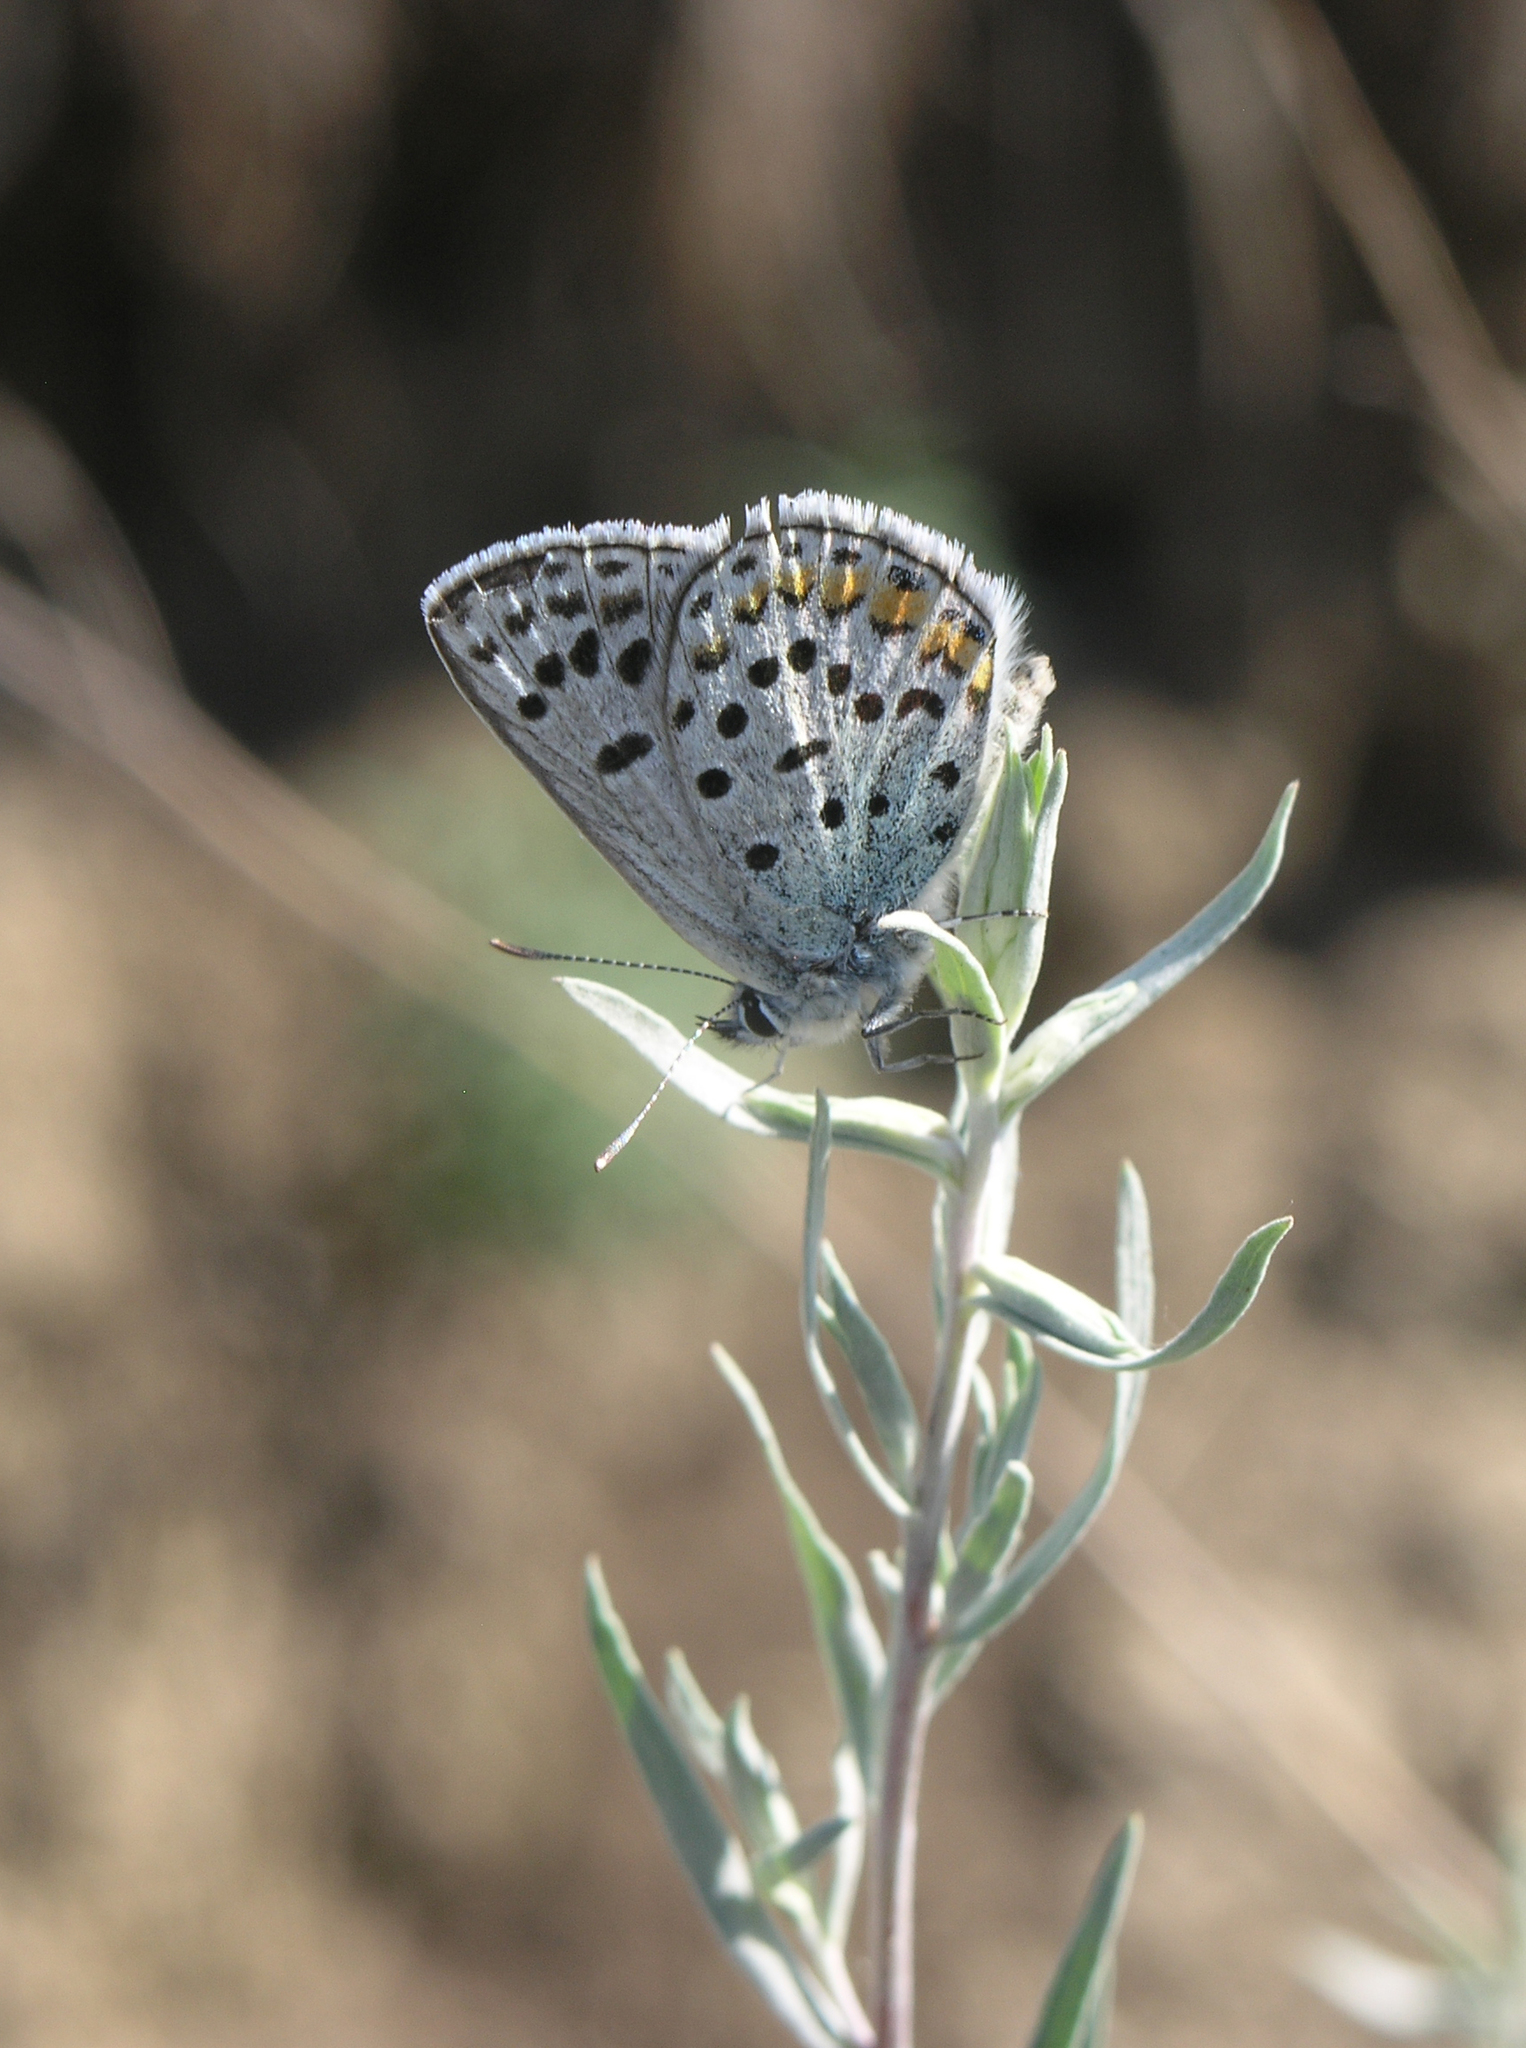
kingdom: Plantae
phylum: Tracheophyta
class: Magnoliopsida
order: Asterales
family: Asteraceae
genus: Artemisia
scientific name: Artemisia glauca
